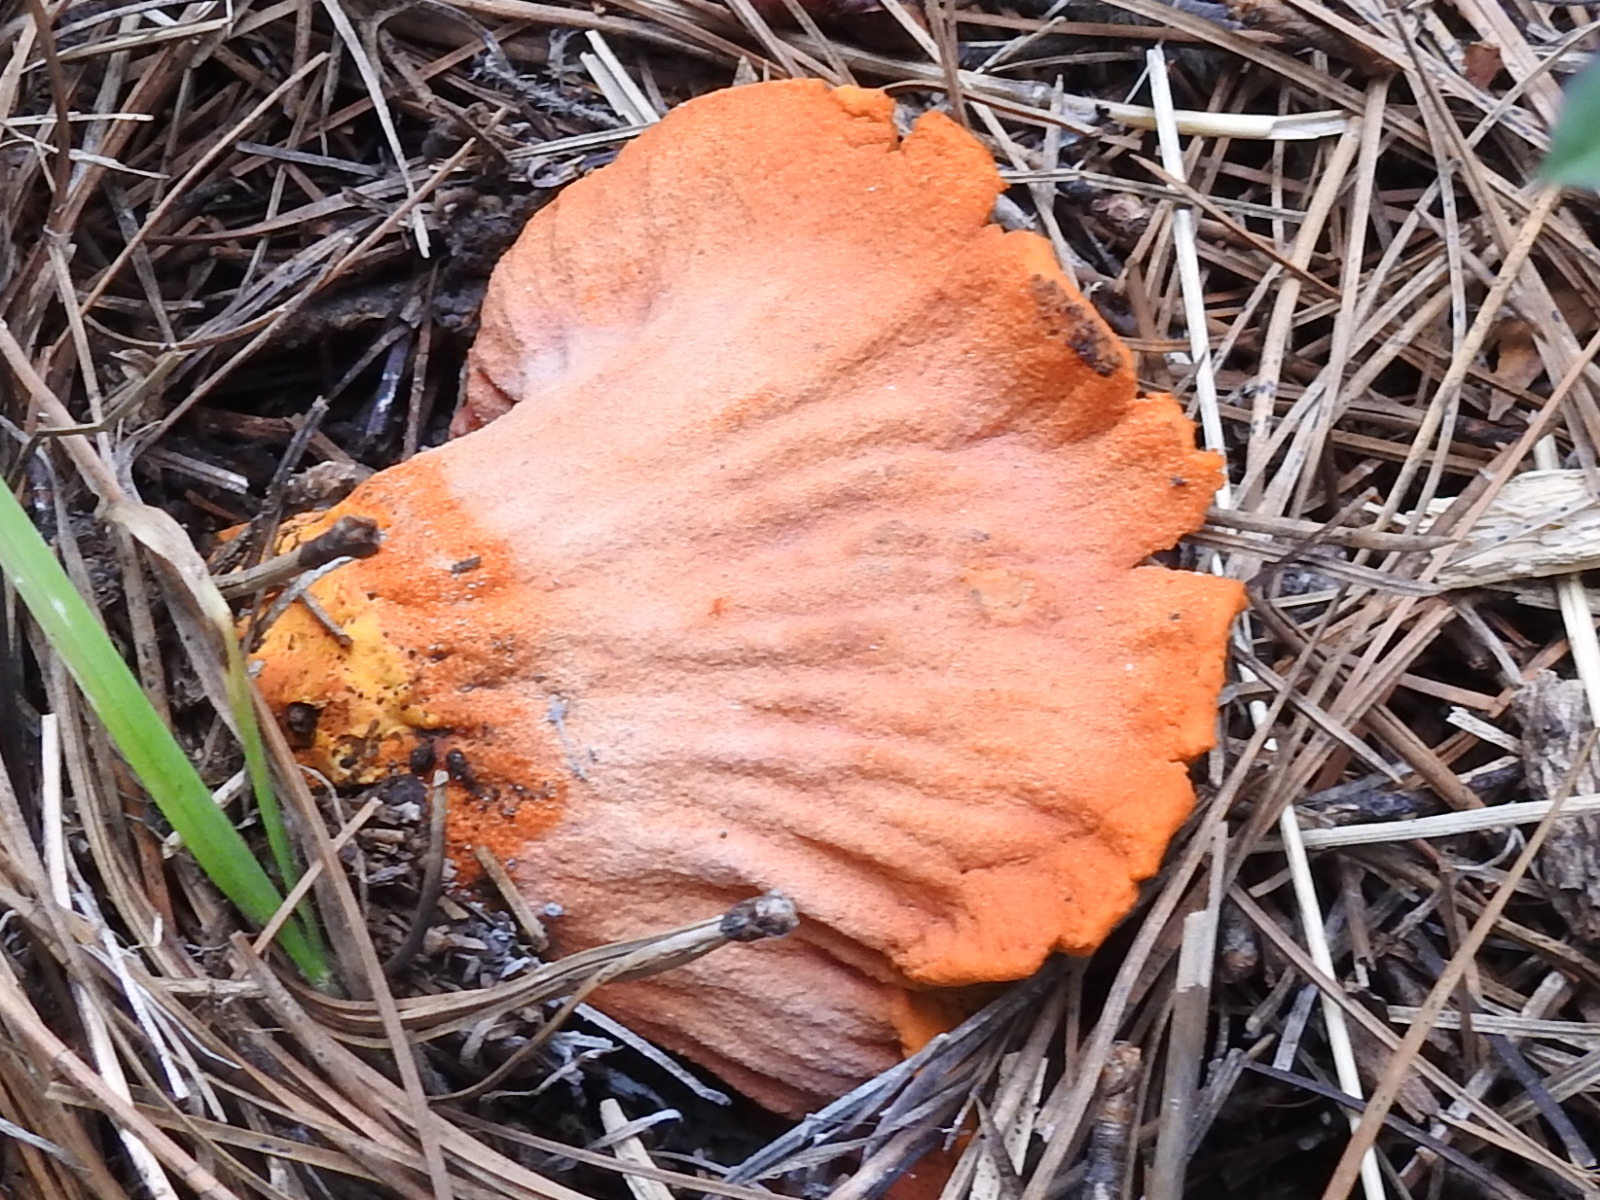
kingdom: Fungi
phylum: Ascomycota
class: Sordariomycetes
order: Hypocreales
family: Hypocreaceae
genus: Hypomyces
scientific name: Hypomyces lactifluorum
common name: Lobster mushroom
